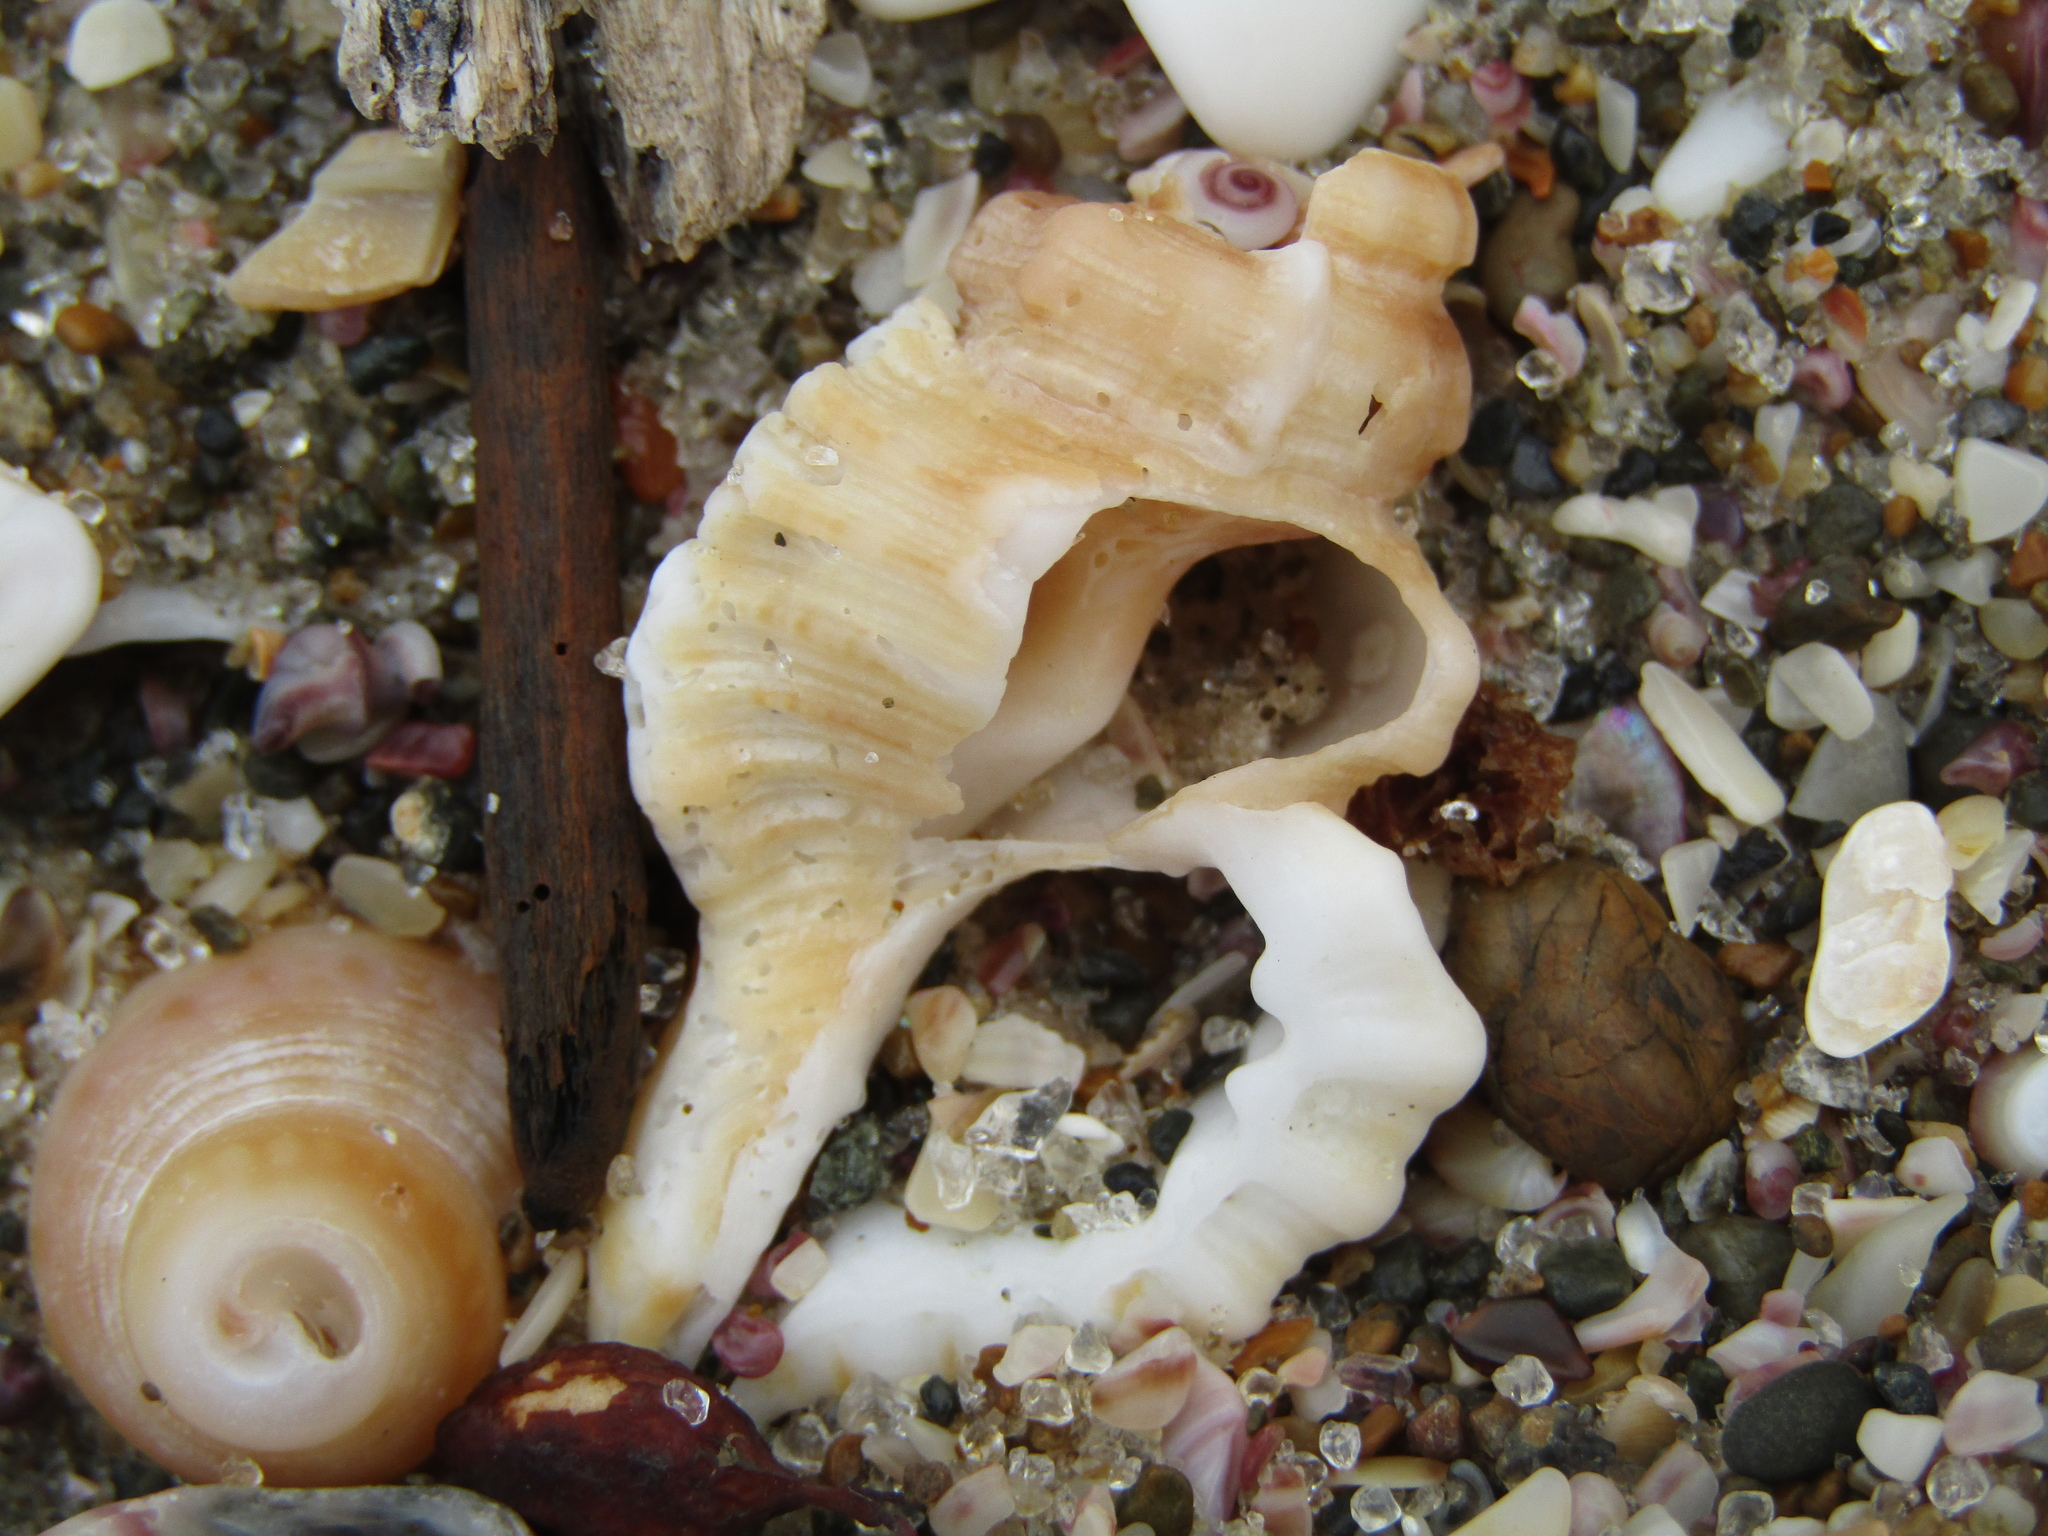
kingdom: Animalia
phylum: Mollusca
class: Gastropoda
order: Littorinimorpha
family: Cymatiidae
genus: Monoplex
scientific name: Monoplex exaratus
